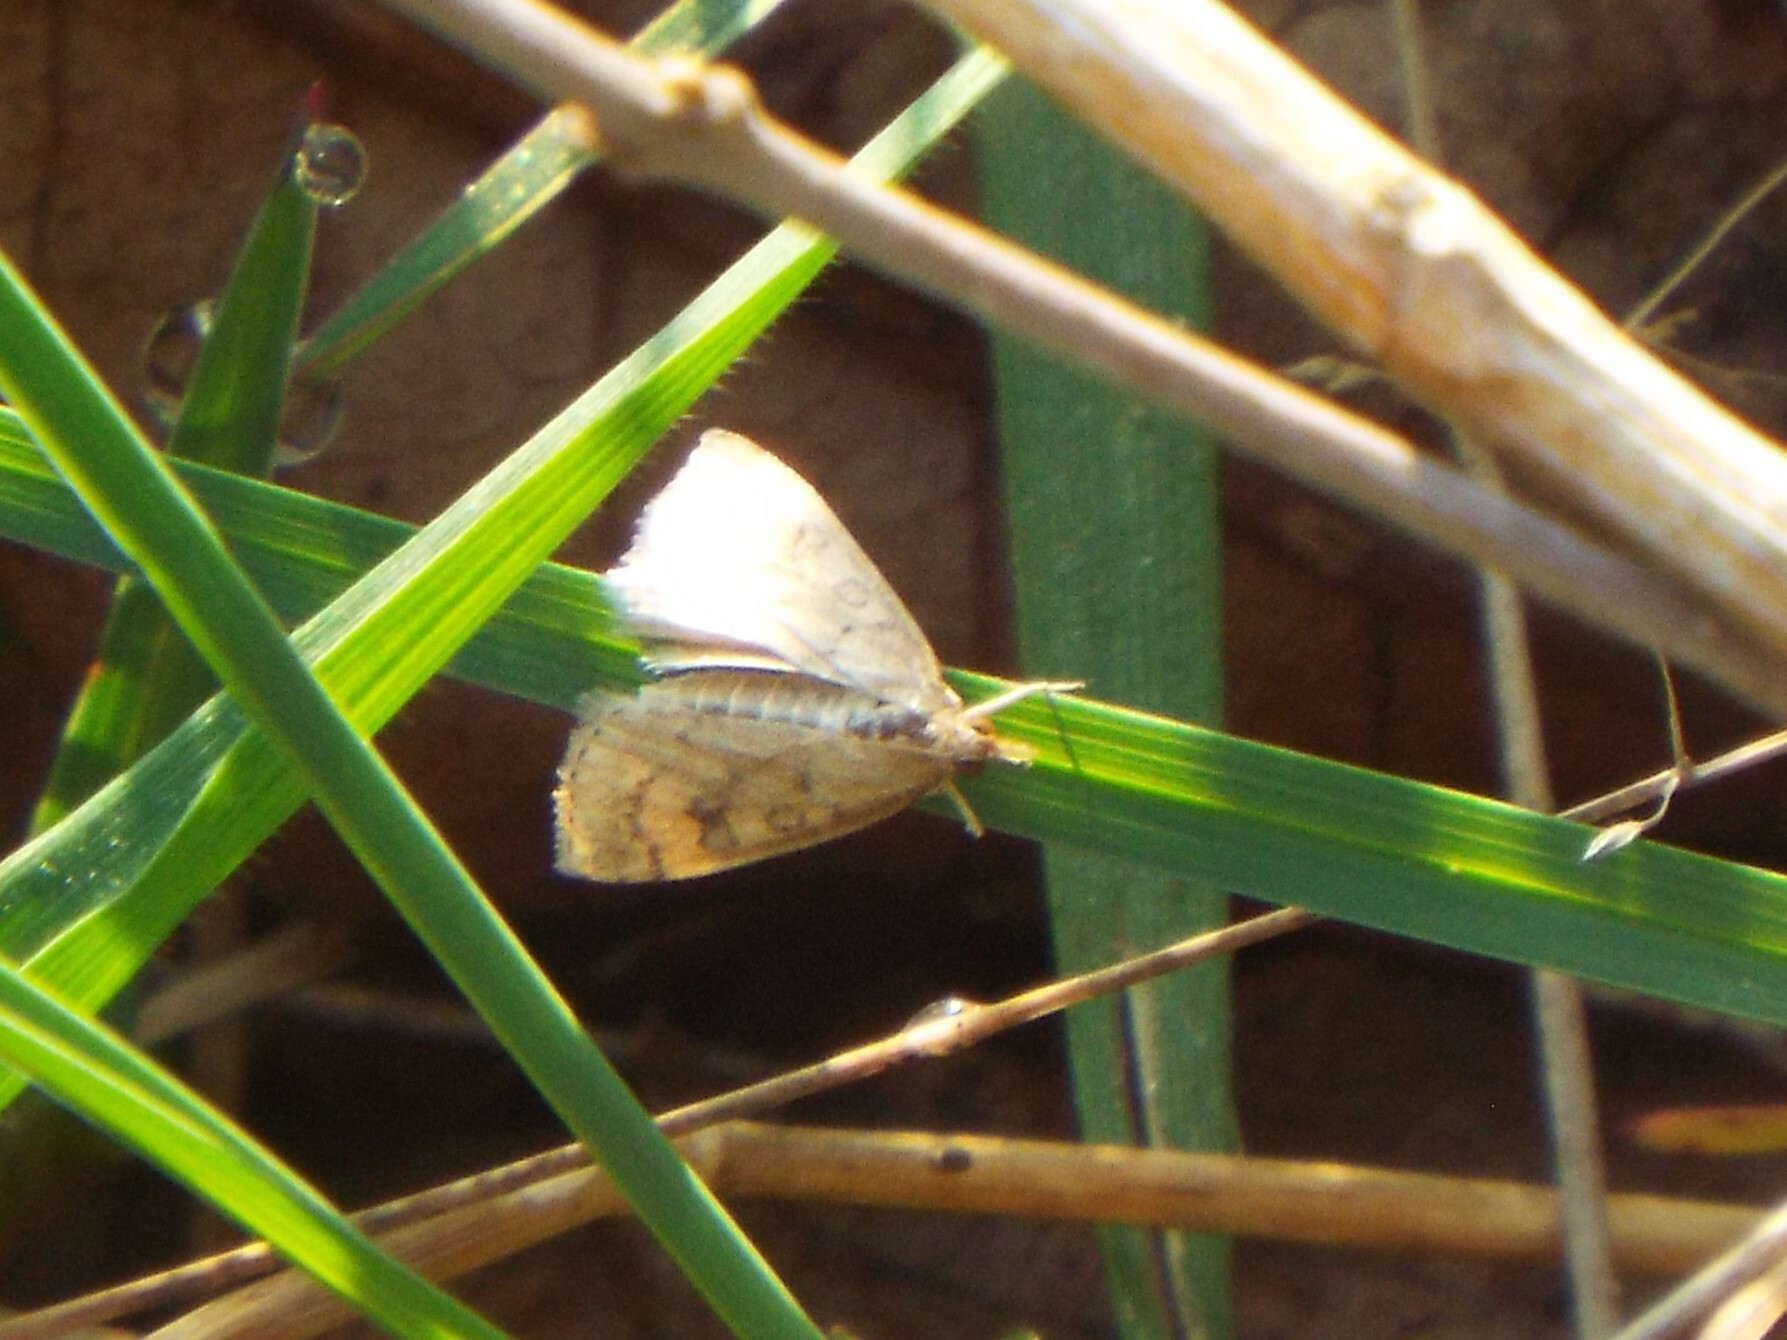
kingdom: Animalia
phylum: Arthropoda
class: Insecta
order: Lepidoptera
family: Crambidae
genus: Udea
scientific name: Udea rubigalis
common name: Celery leaftier moth
